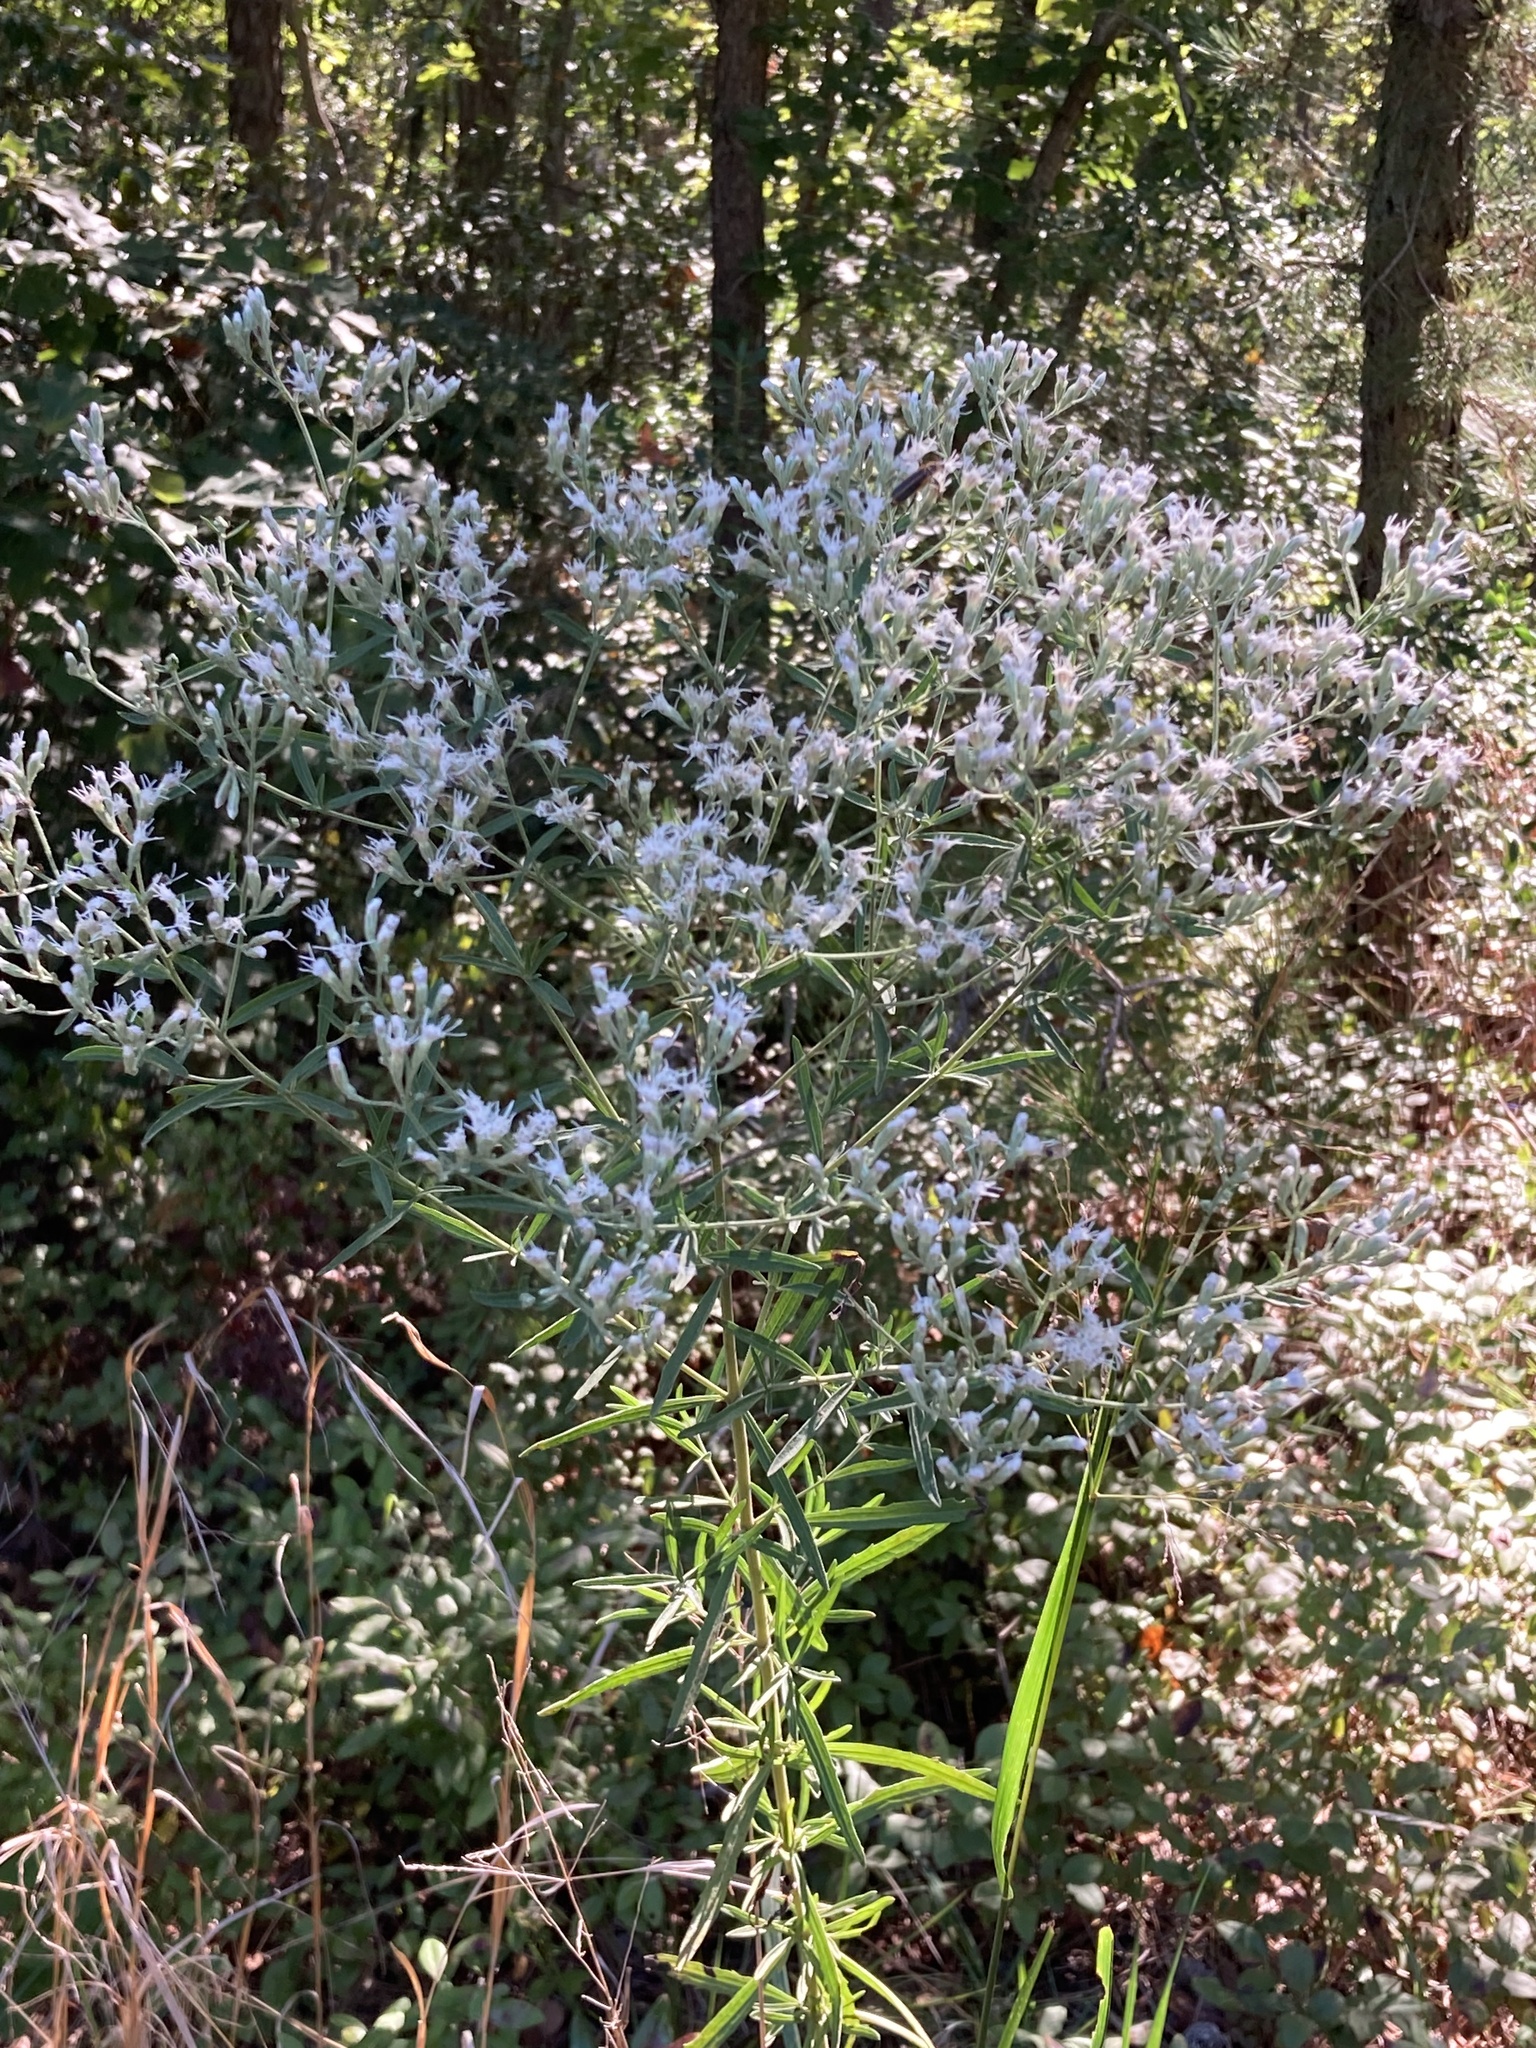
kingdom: Plantae
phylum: Tracheophyta
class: Magnoliopsida
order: Asterales
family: Asteraceae
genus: Eupatorium
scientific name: Eupatorium torreyanum
